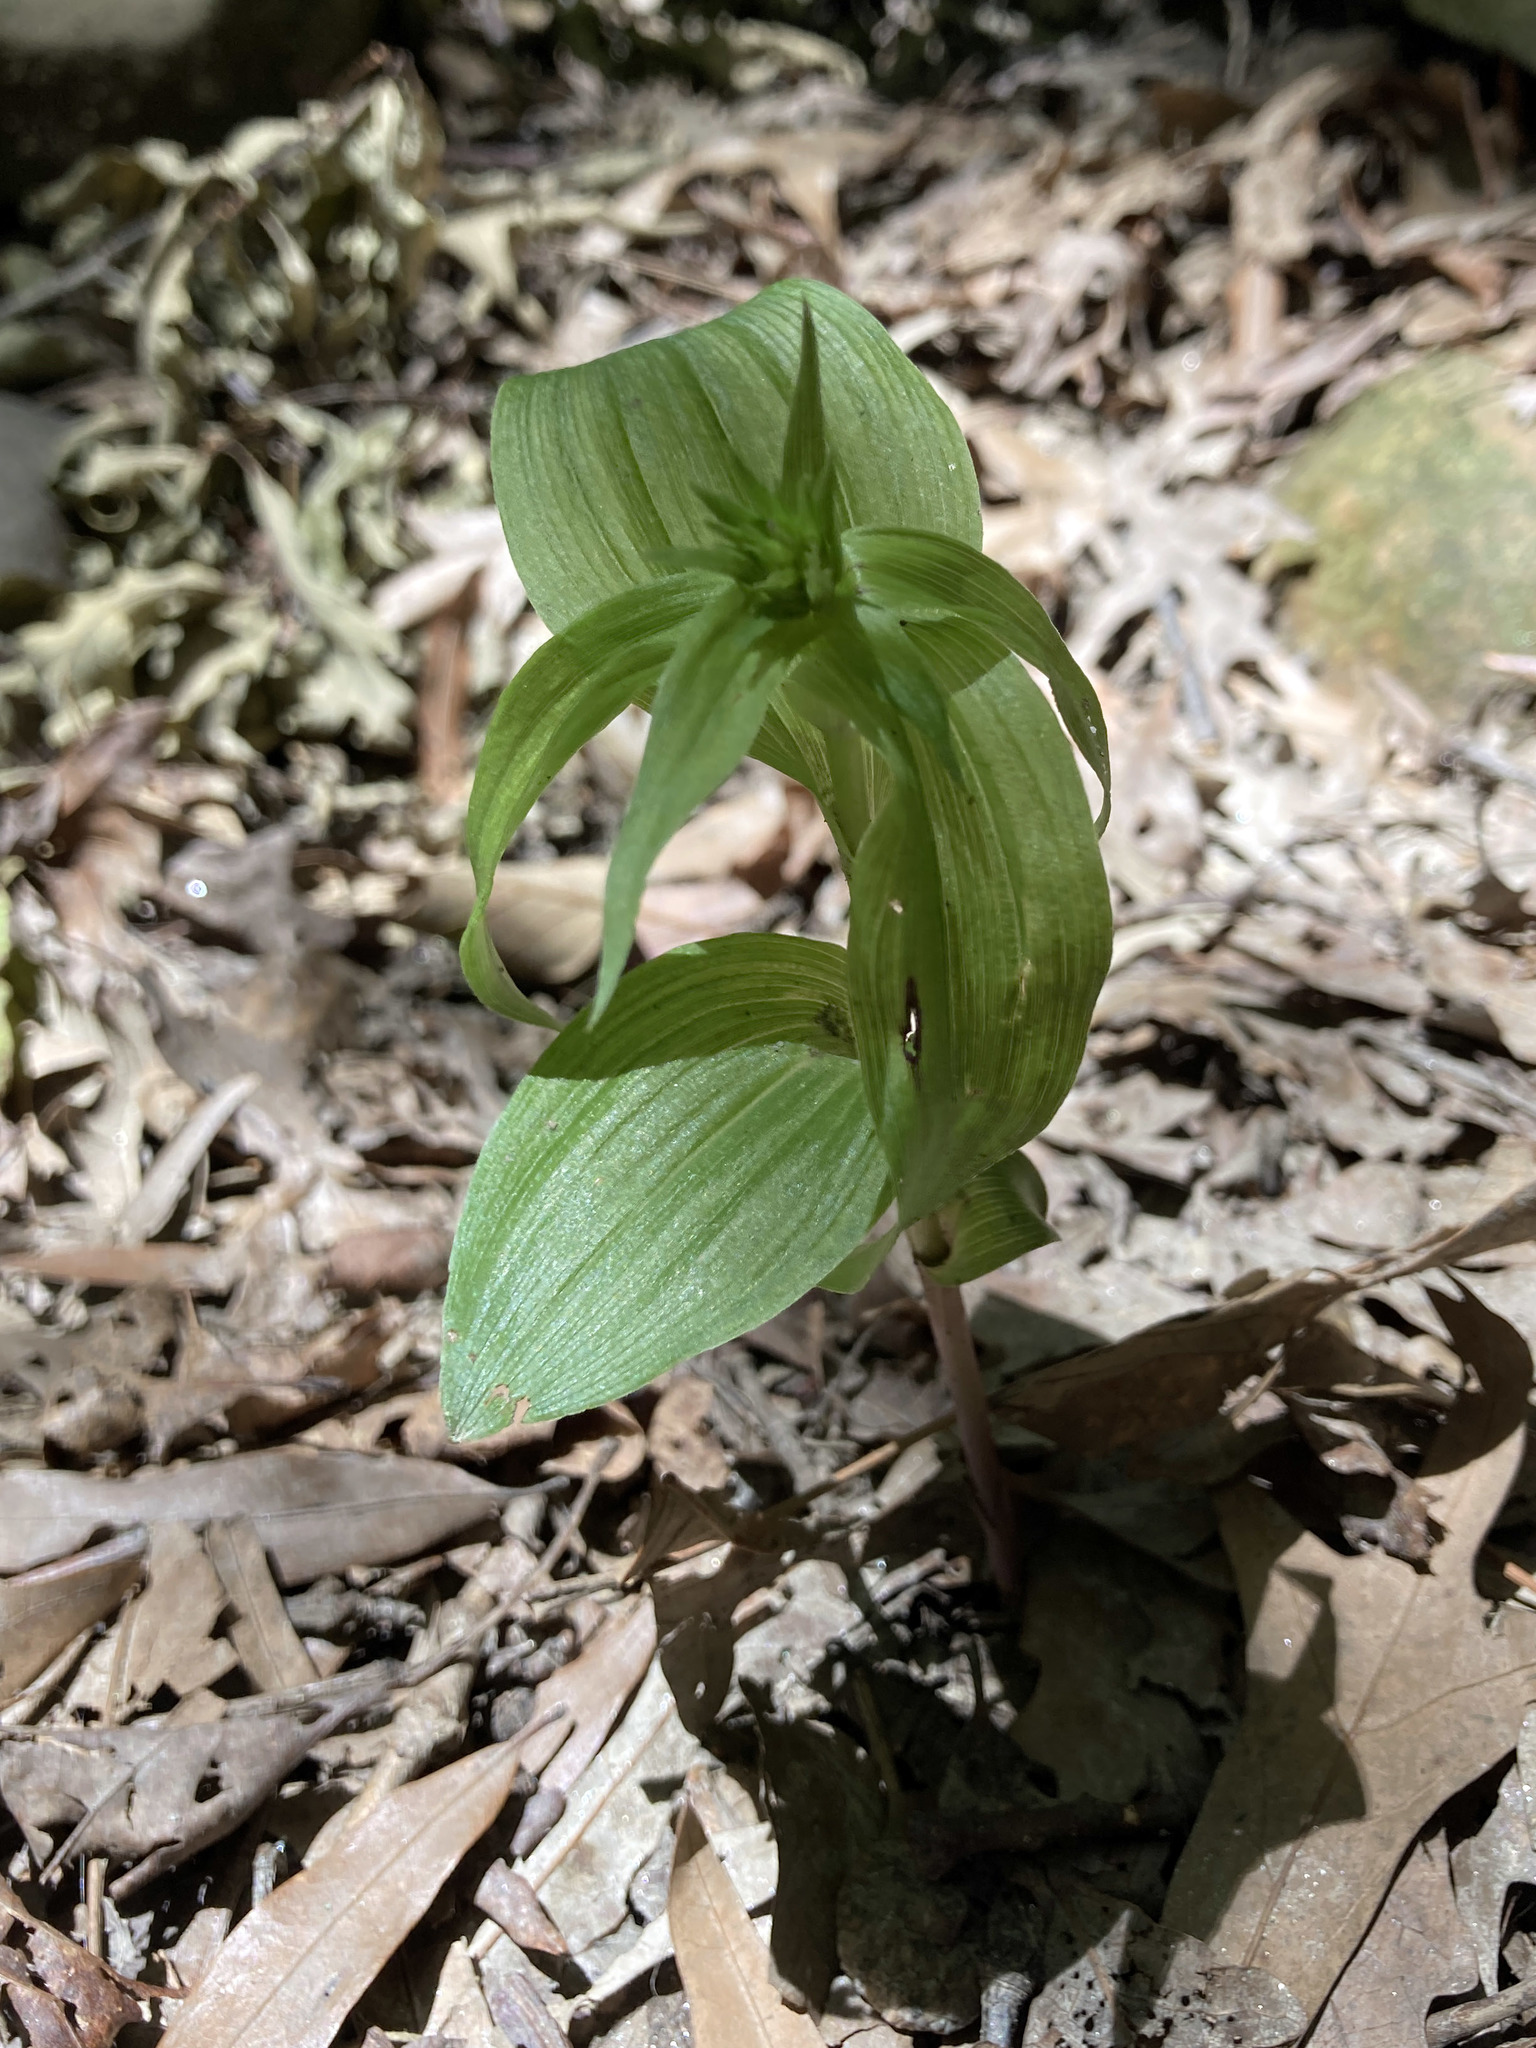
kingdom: Plantae
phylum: Tracheophyta
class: Liliopsida
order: Asparagales
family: Orchidaceae
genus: Epipactis
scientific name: Epipactis helleborine
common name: Broad-leaved helleborine
